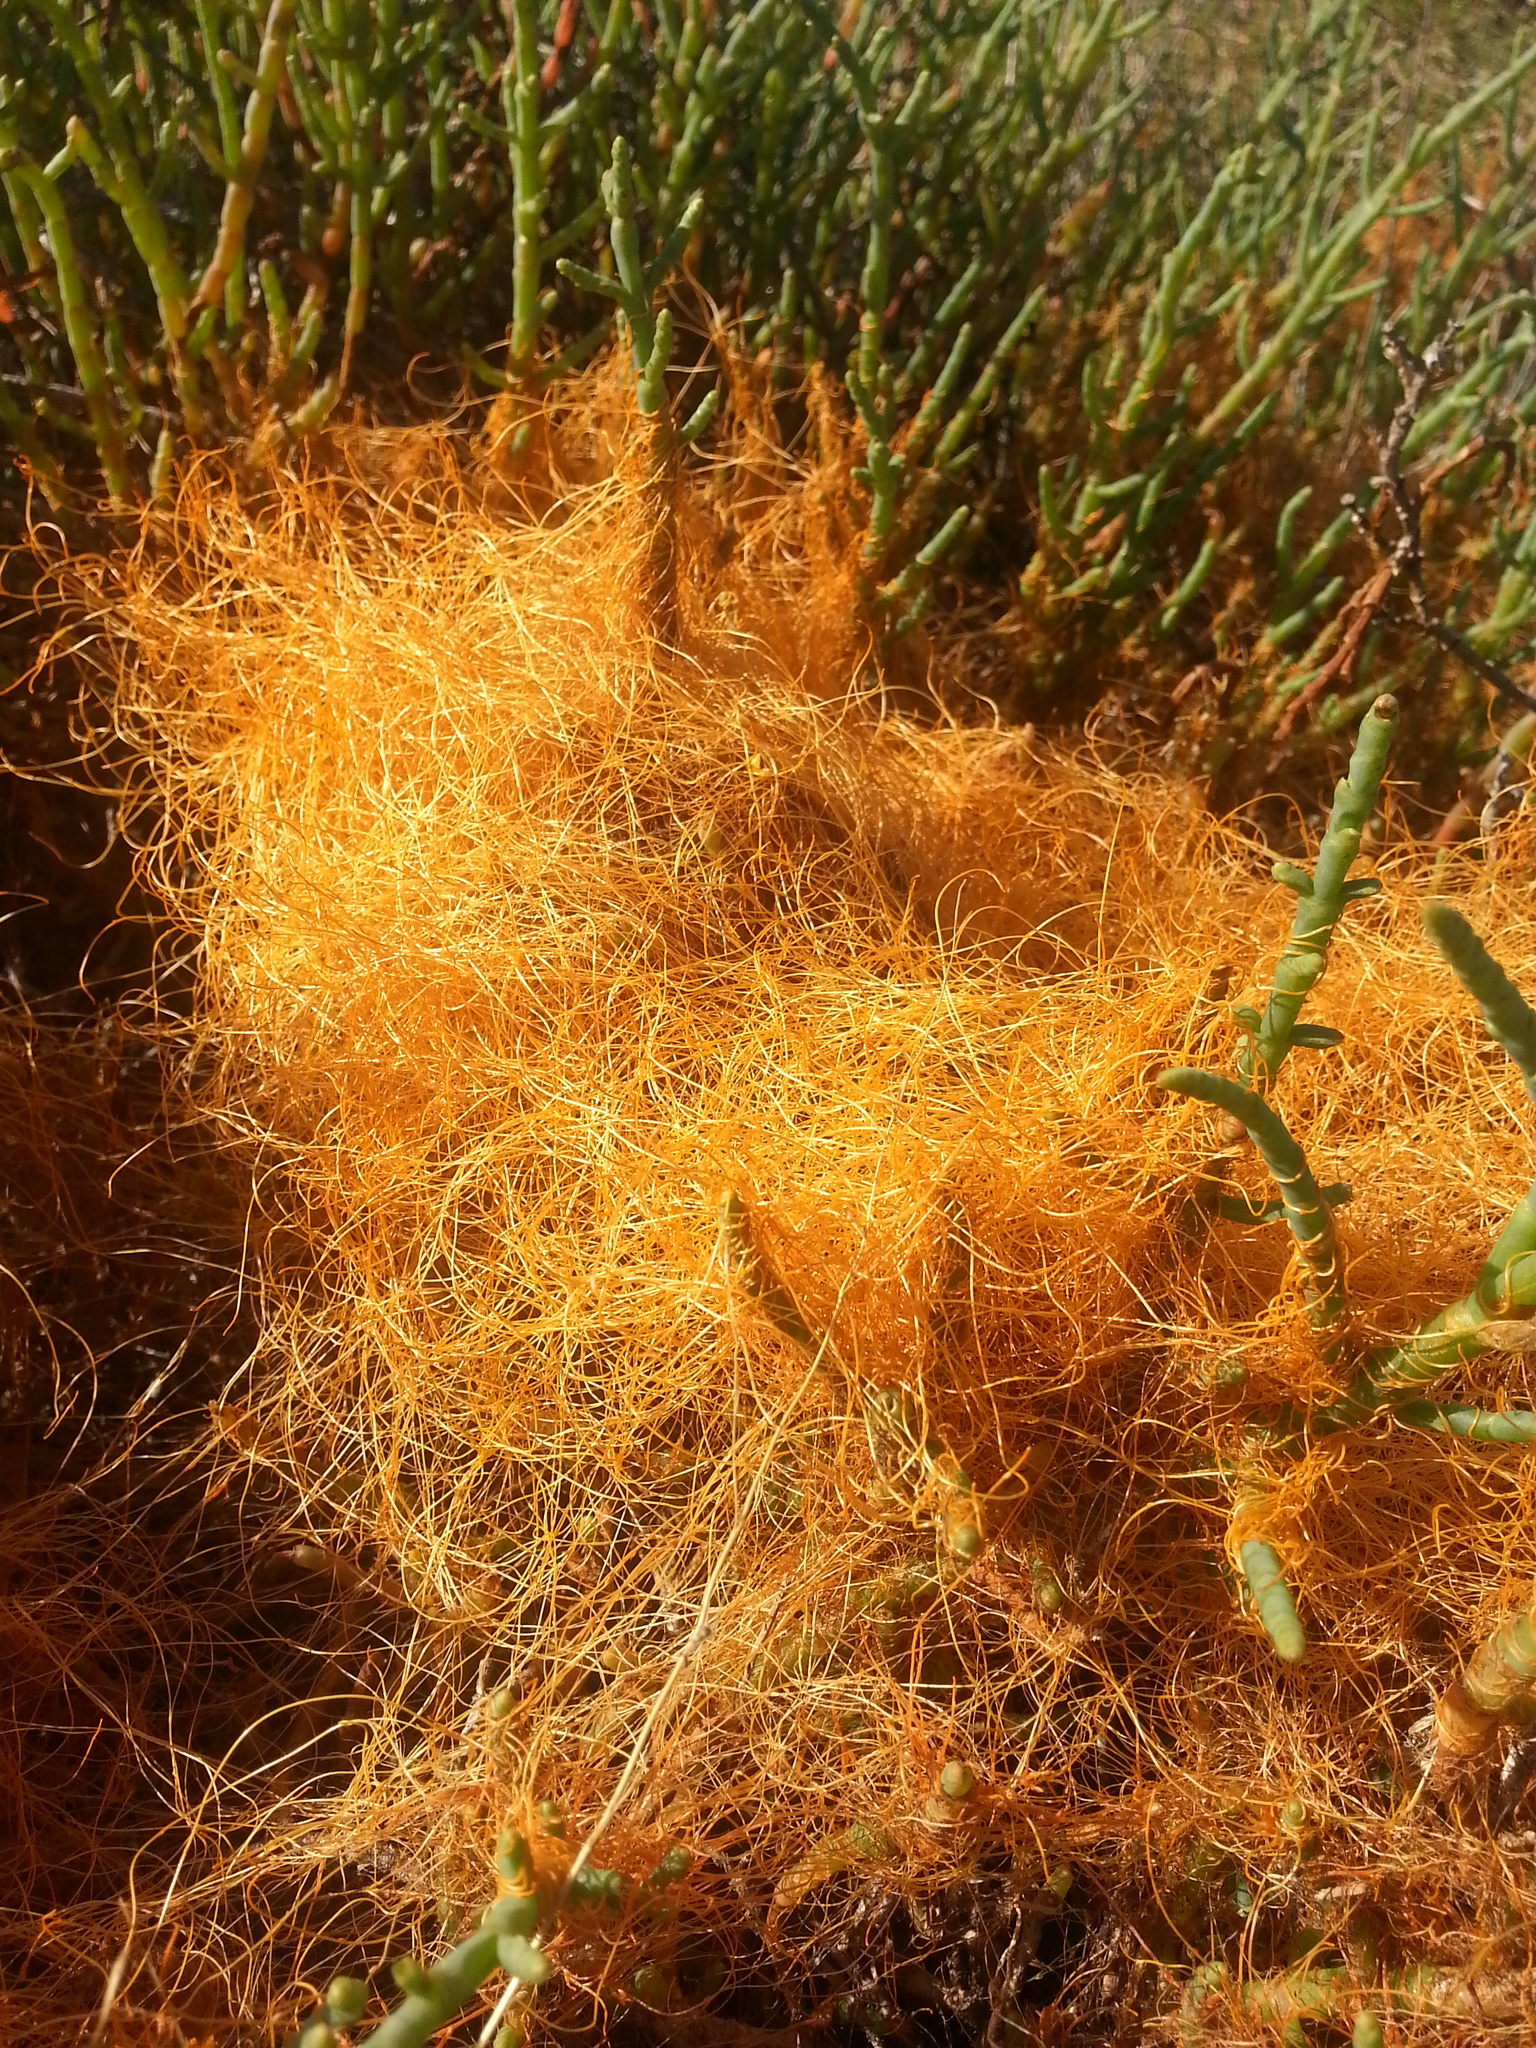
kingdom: Plantae
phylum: Tracheophyta
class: Magnoliopsida
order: Solanales
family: Convolvulaceae
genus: Cuscuta
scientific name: Cuscuta pacifica
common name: Large saltmarsh dodder
